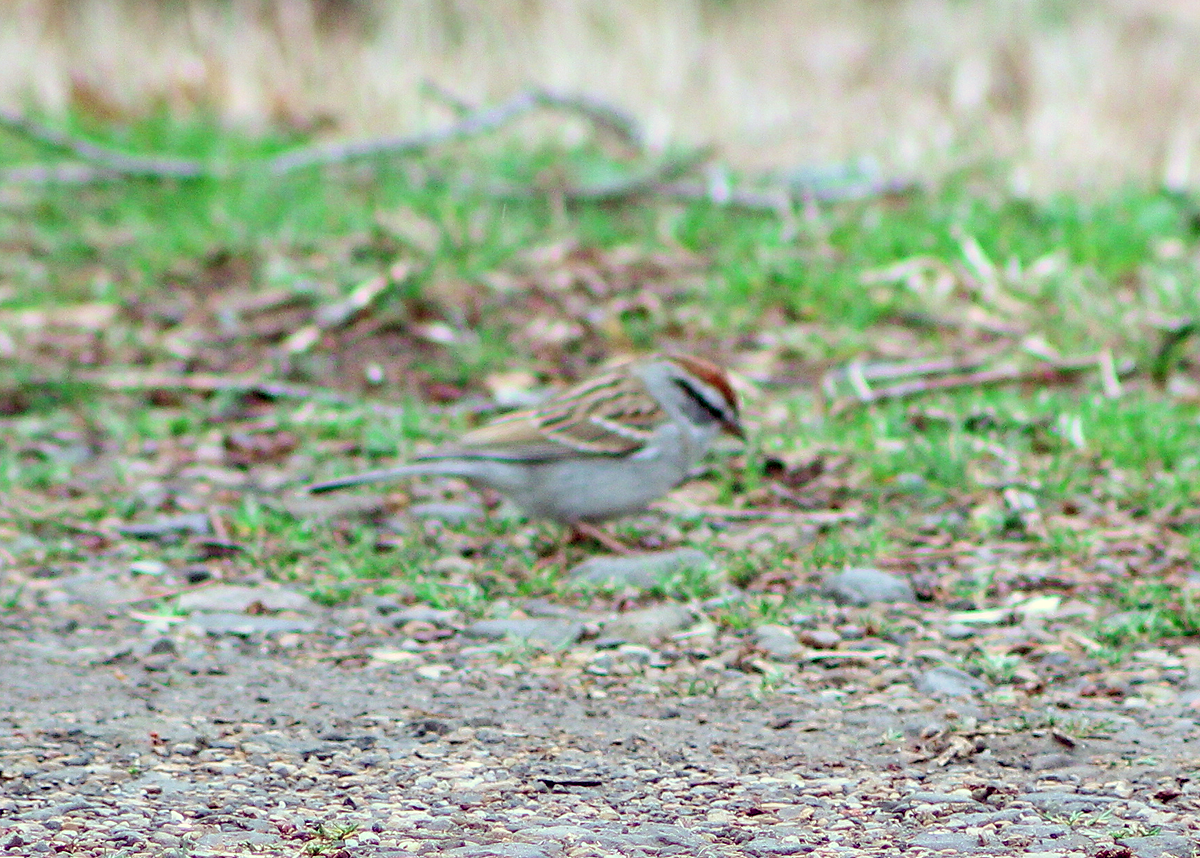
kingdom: Animalia
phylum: Chordata
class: Aves
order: Passeriformes
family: Passerellidae
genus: Spizella
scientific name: Spizella passerina
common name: Chipping sparrow
